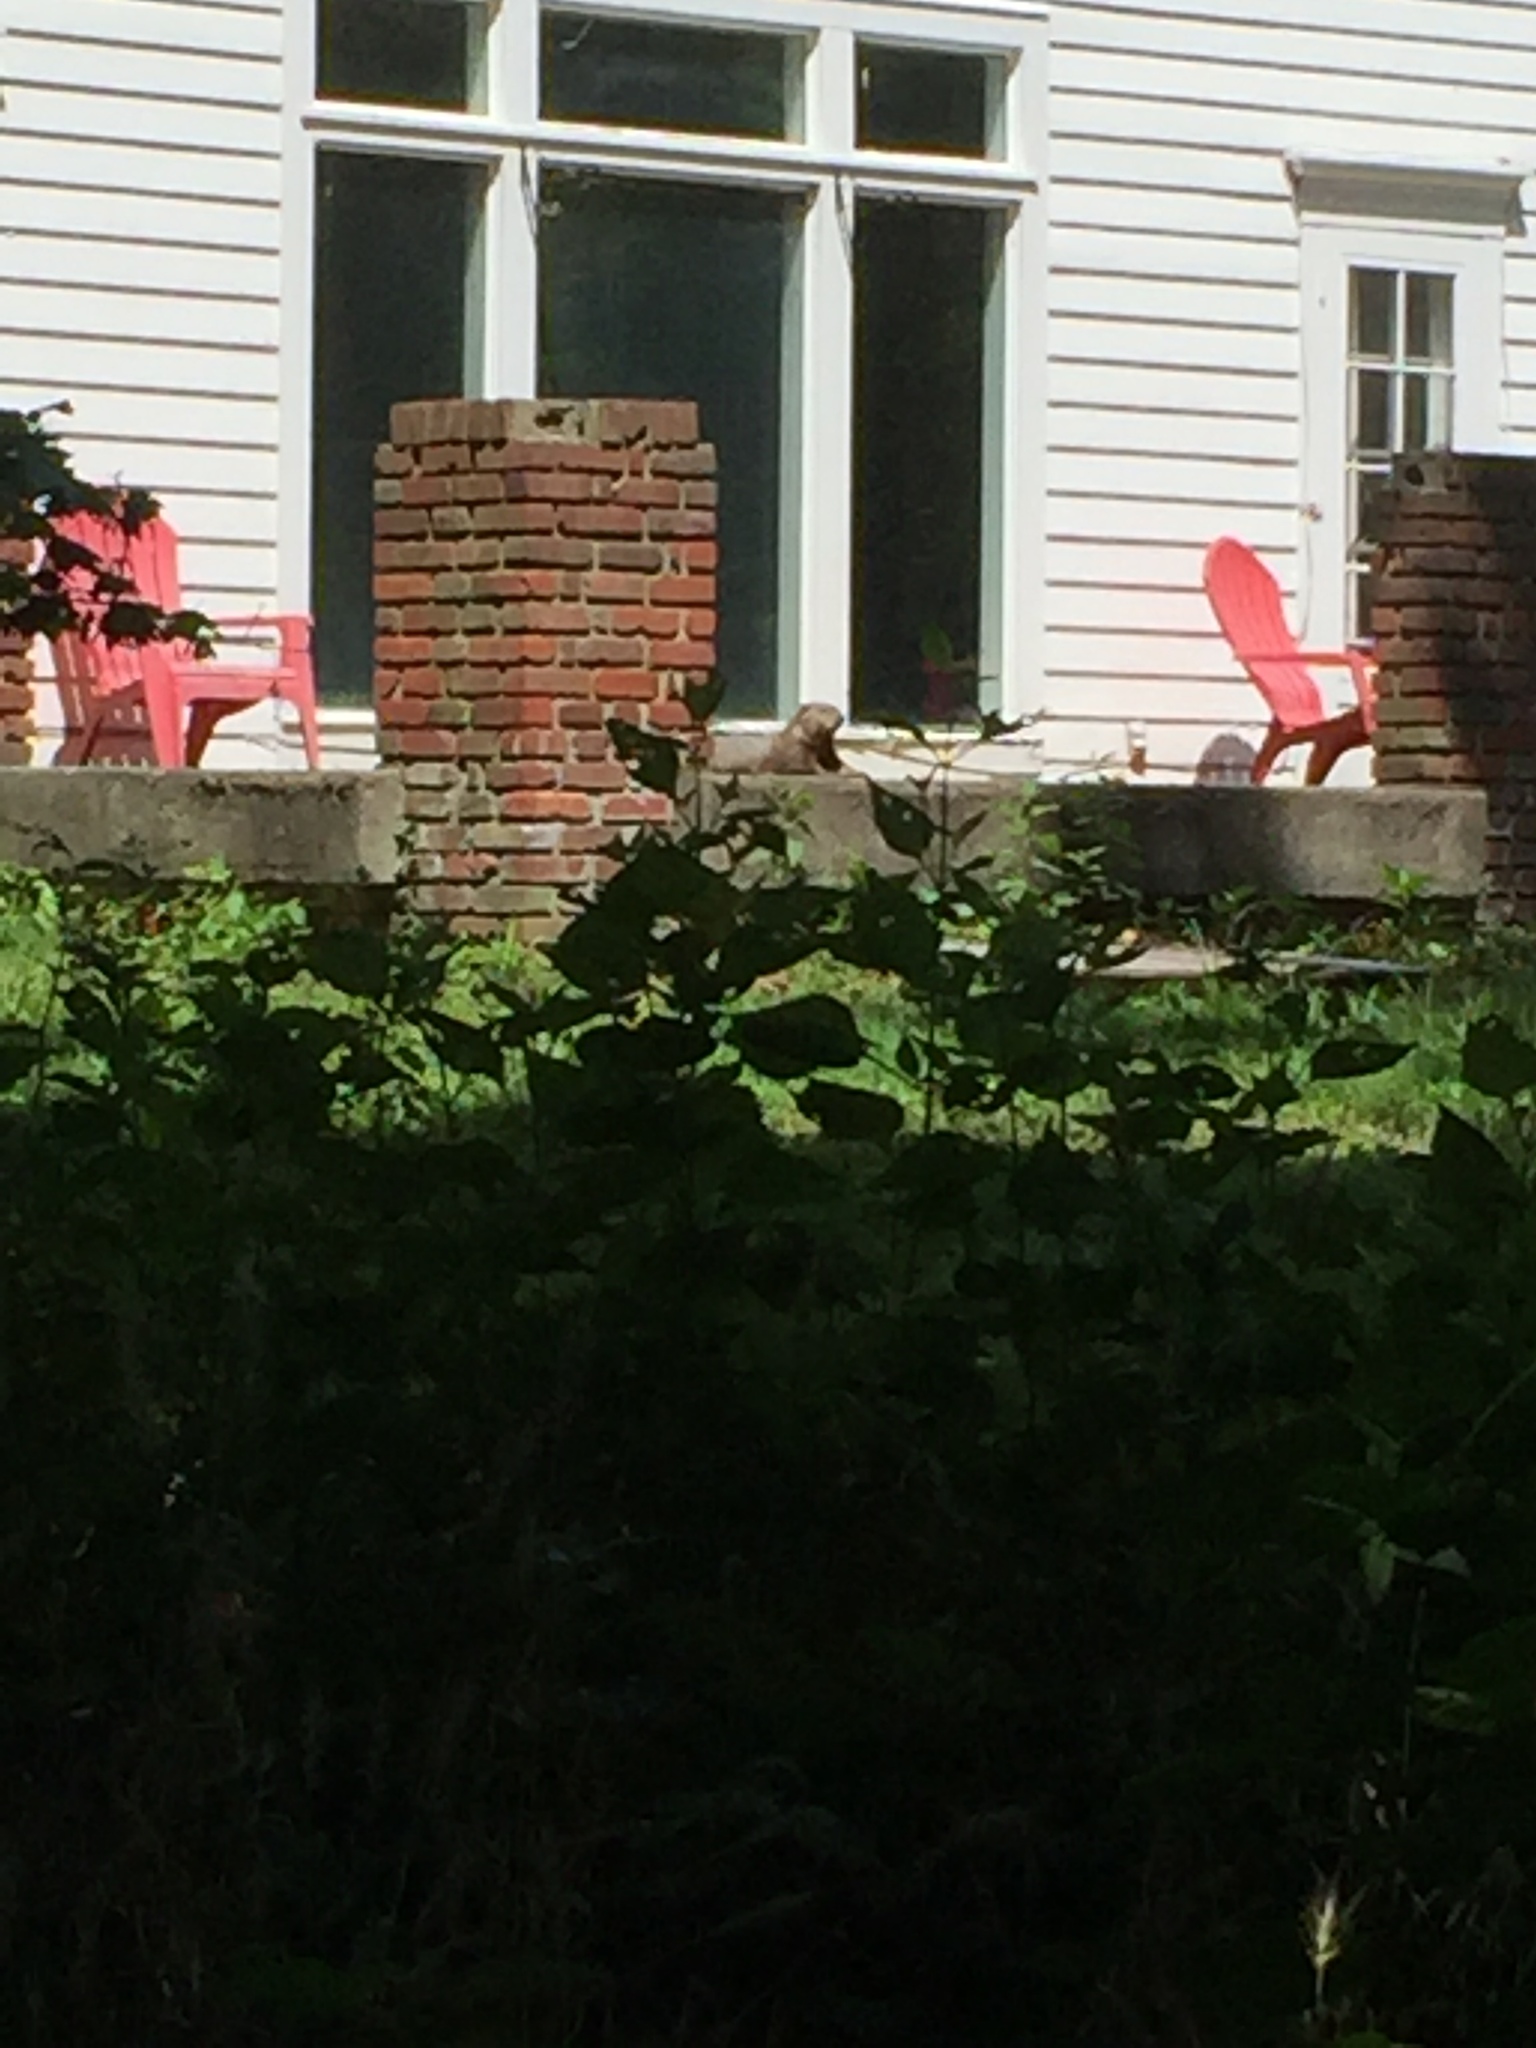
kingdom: Animalia
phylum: Chordata
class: Mammalia
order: Rodentia
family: Sciuridae
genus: Marmota
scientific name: Marmota monax
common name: Groundhog
